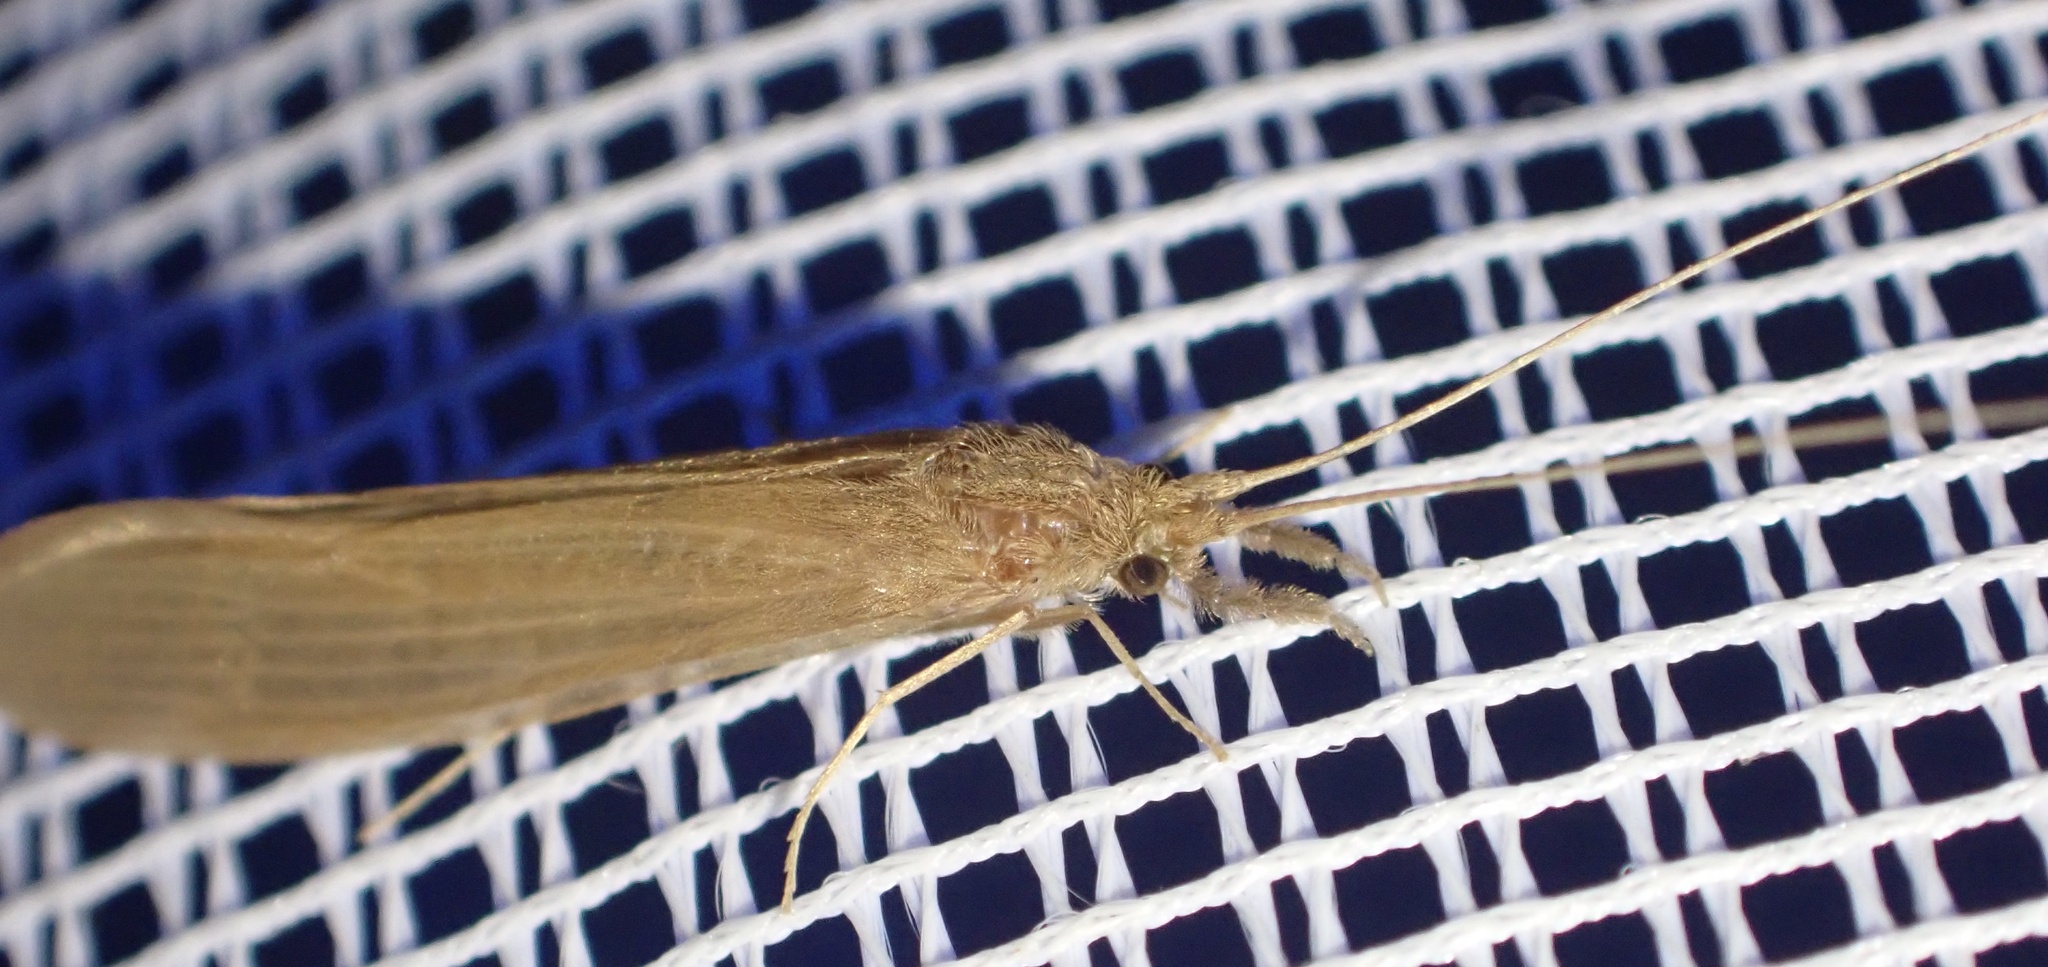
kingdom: Animalia
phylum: Arthropoda
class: Insecta
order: Trichoptera
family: Leptoceridae
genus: Oecetis
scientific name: Oecetis ochracea
